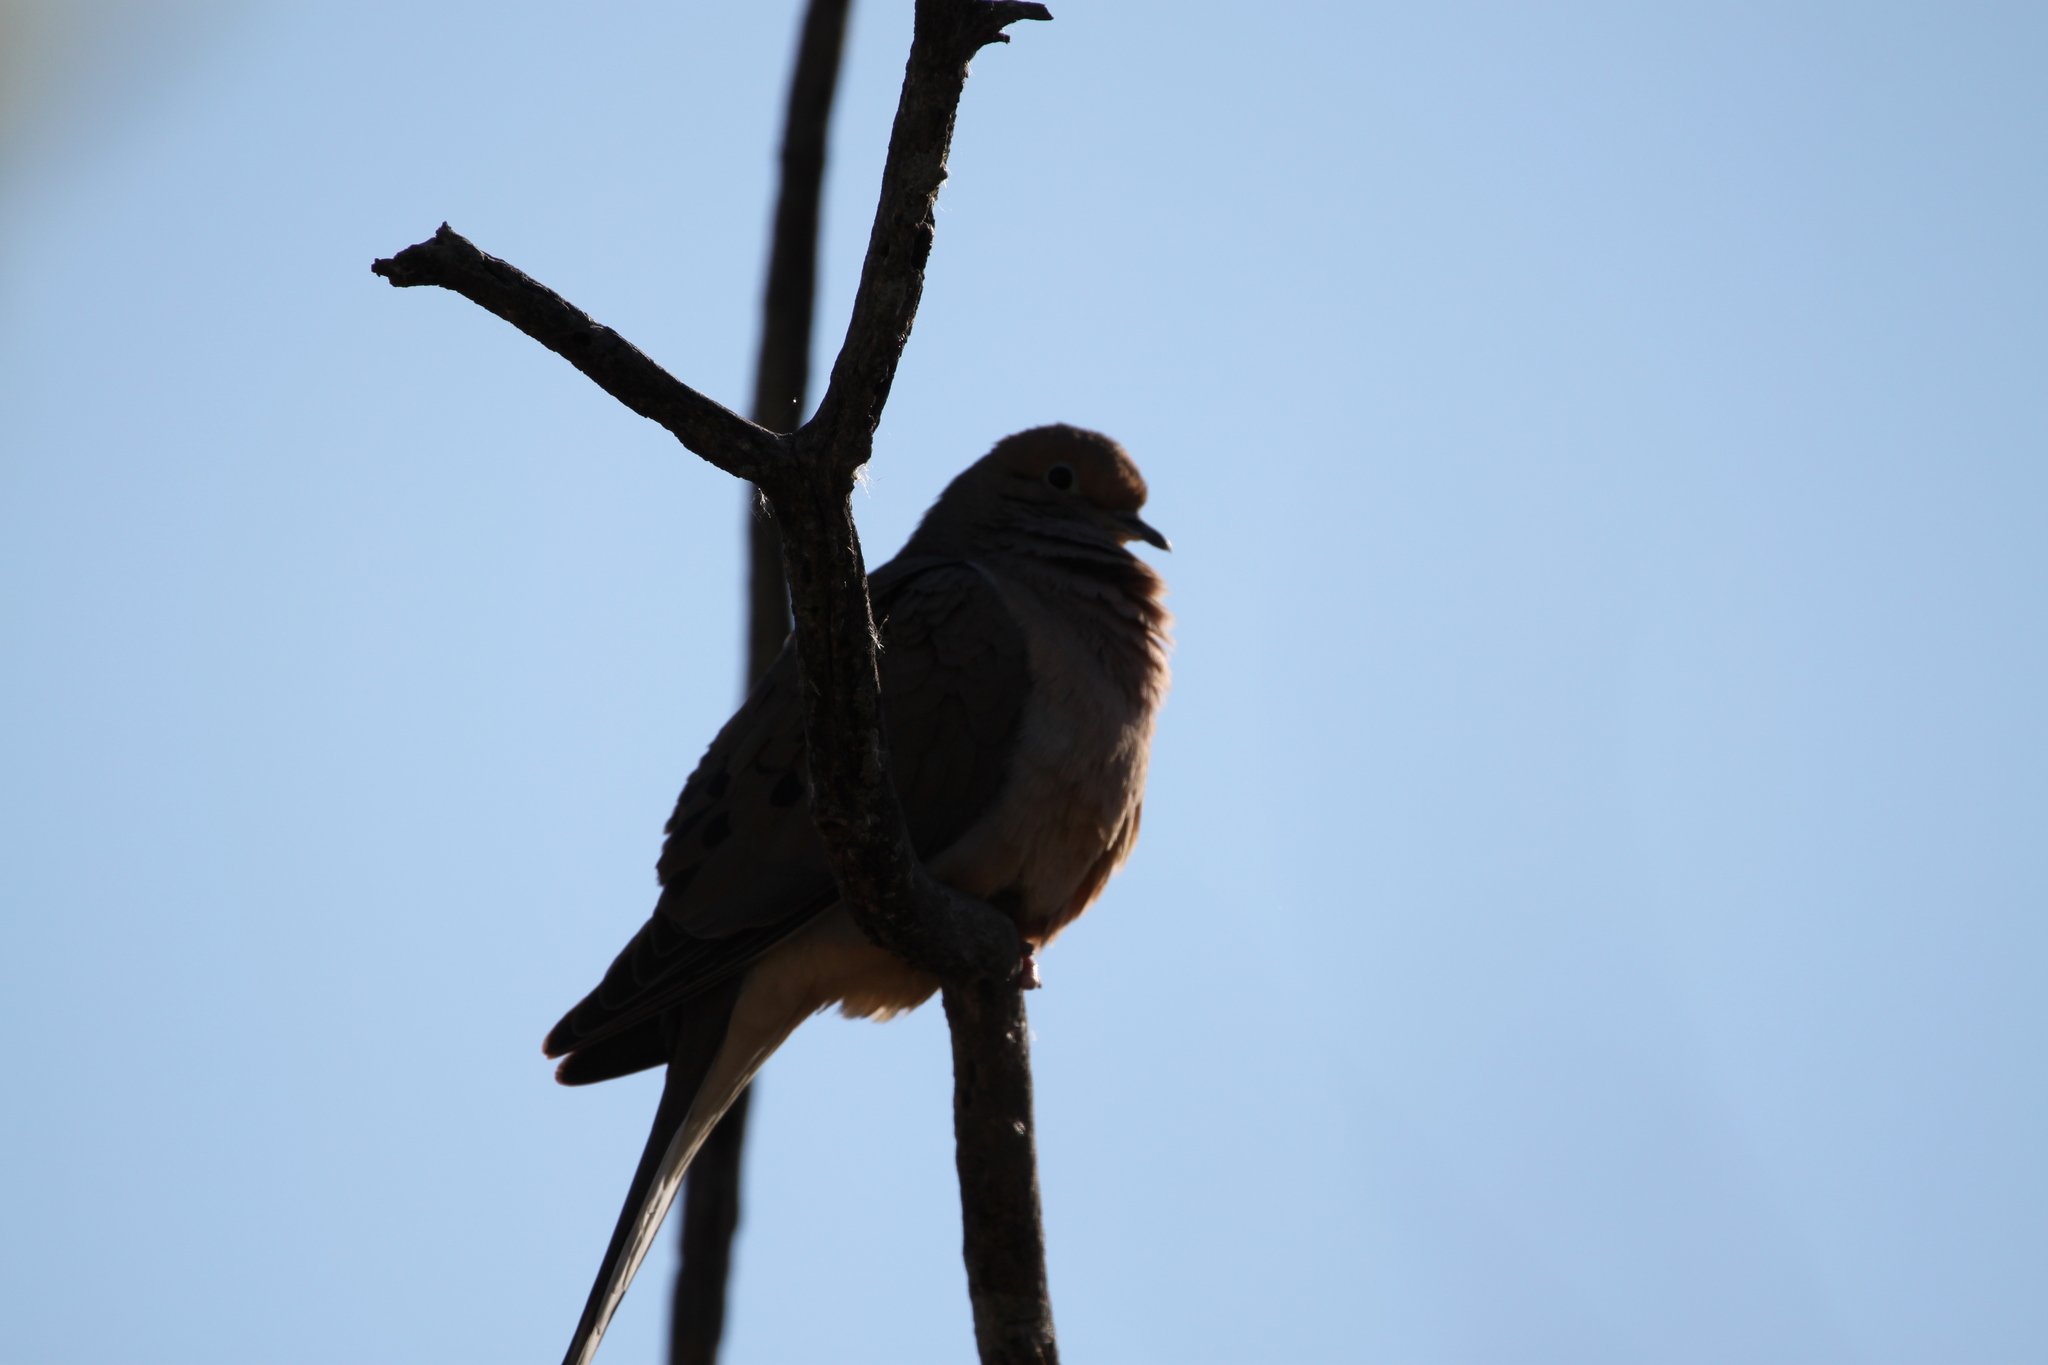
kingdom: Animalia
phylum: Chordata
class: Aves
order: Columbiformes
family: Columbidae
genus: Zenaida
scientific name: Zenaida macroura
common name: Mourning dove
